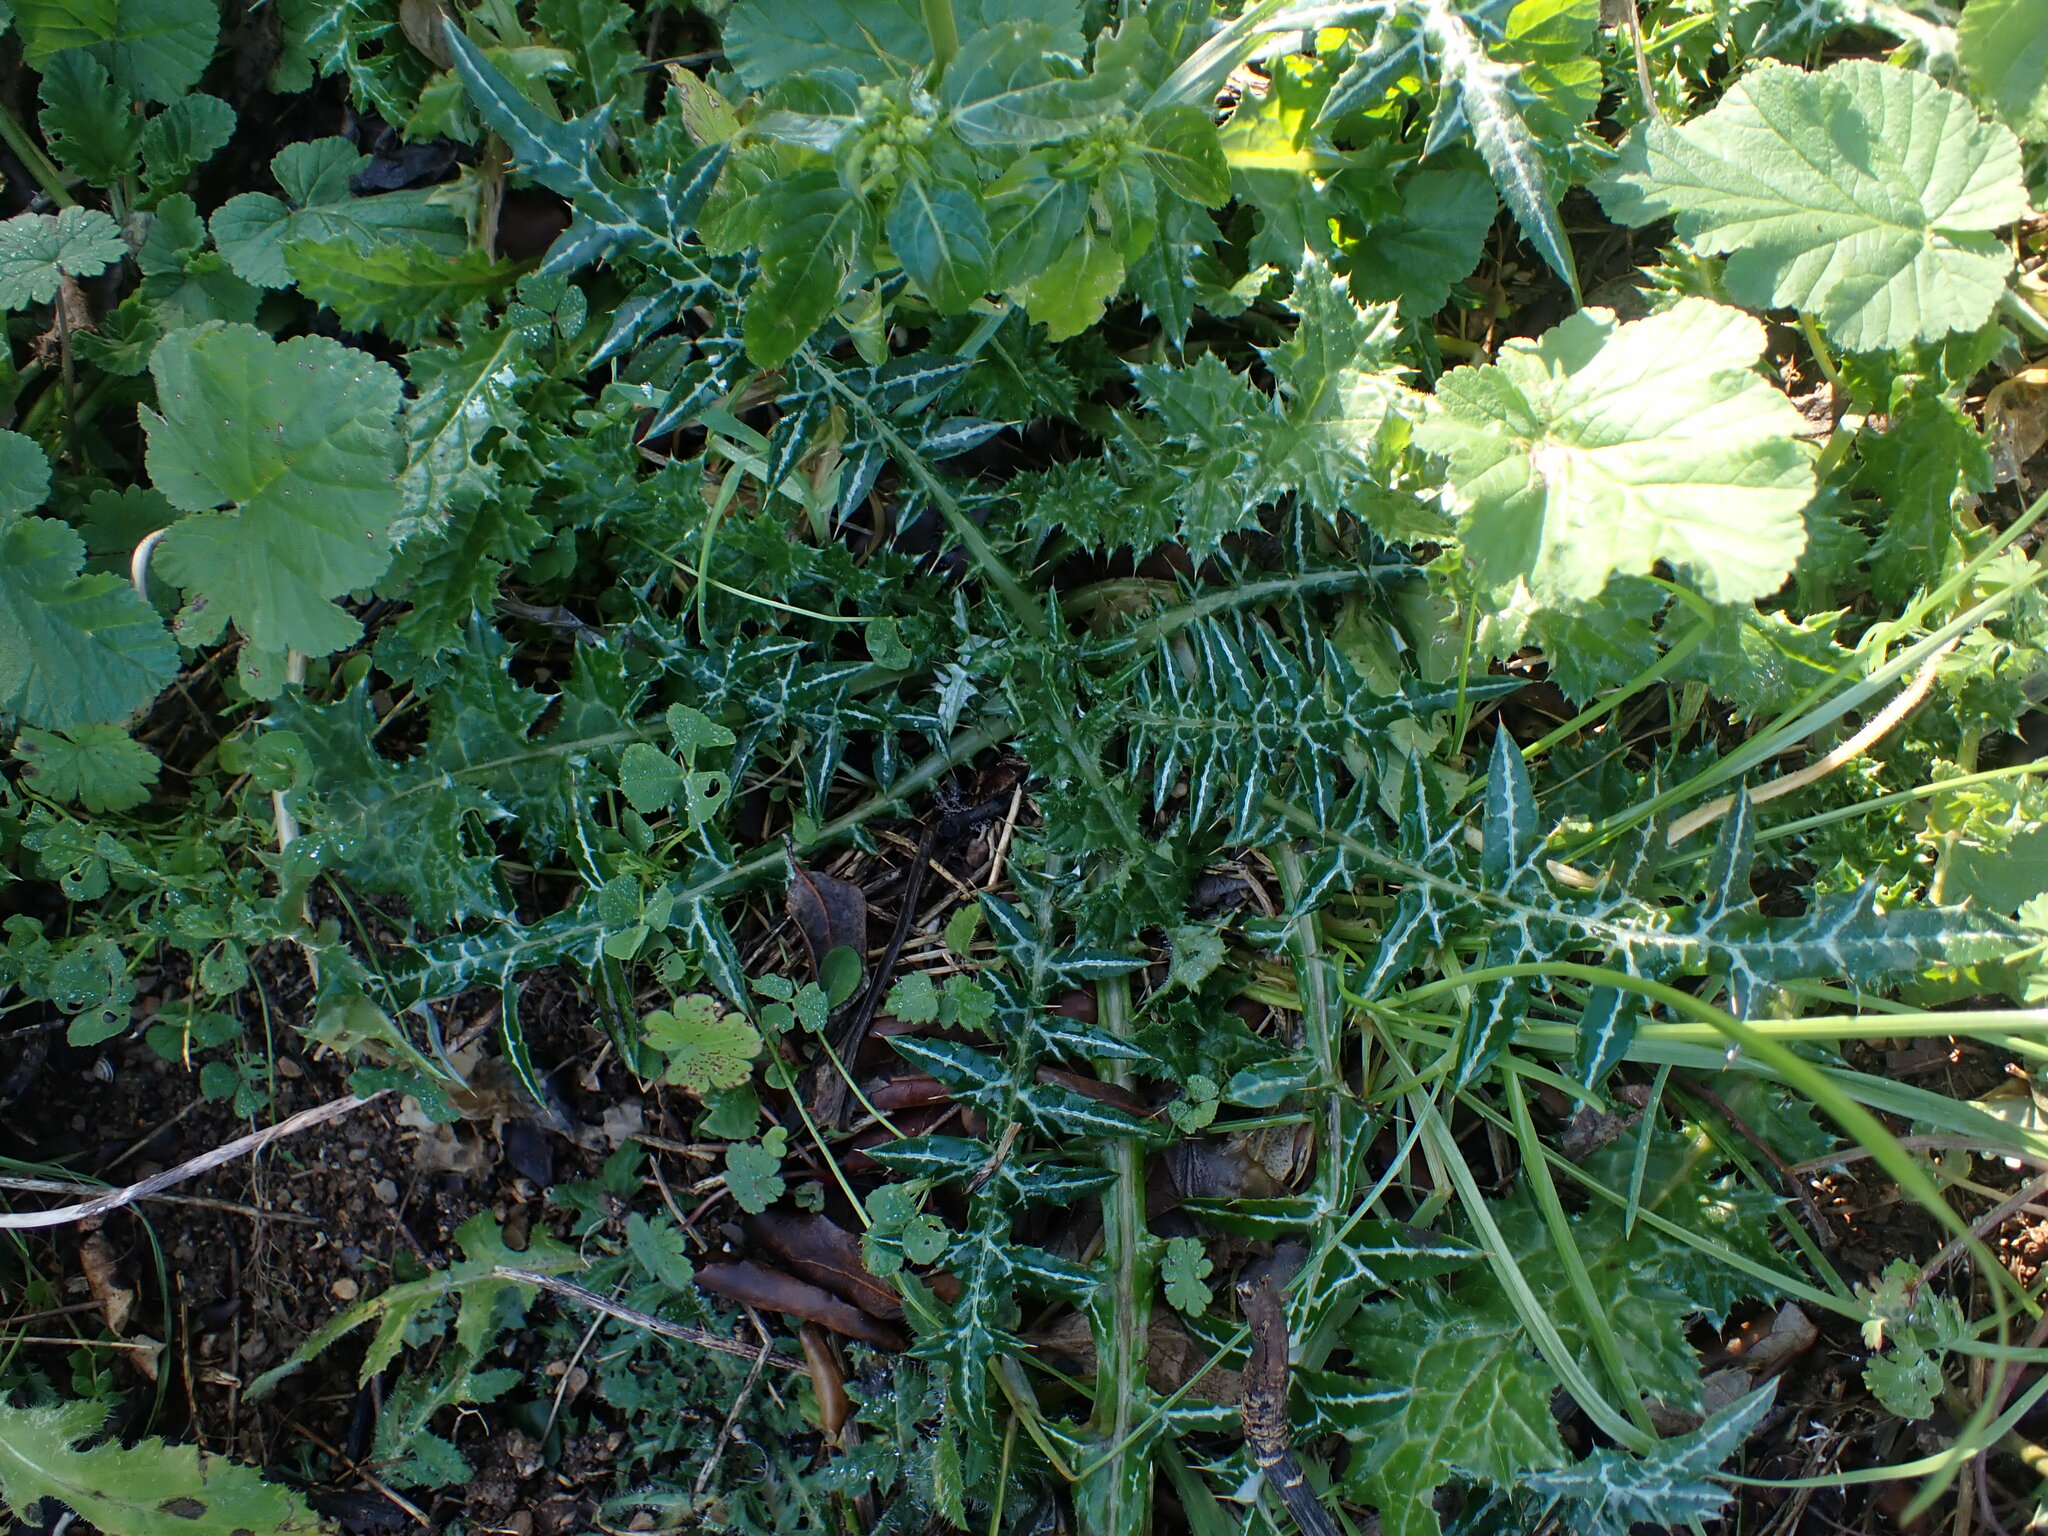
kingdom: Plantae
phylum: Tracheophyta
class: Magnoliopsida
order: Asterales
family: Asteraceae
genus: Galactites
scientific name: Galactites tomentosa
